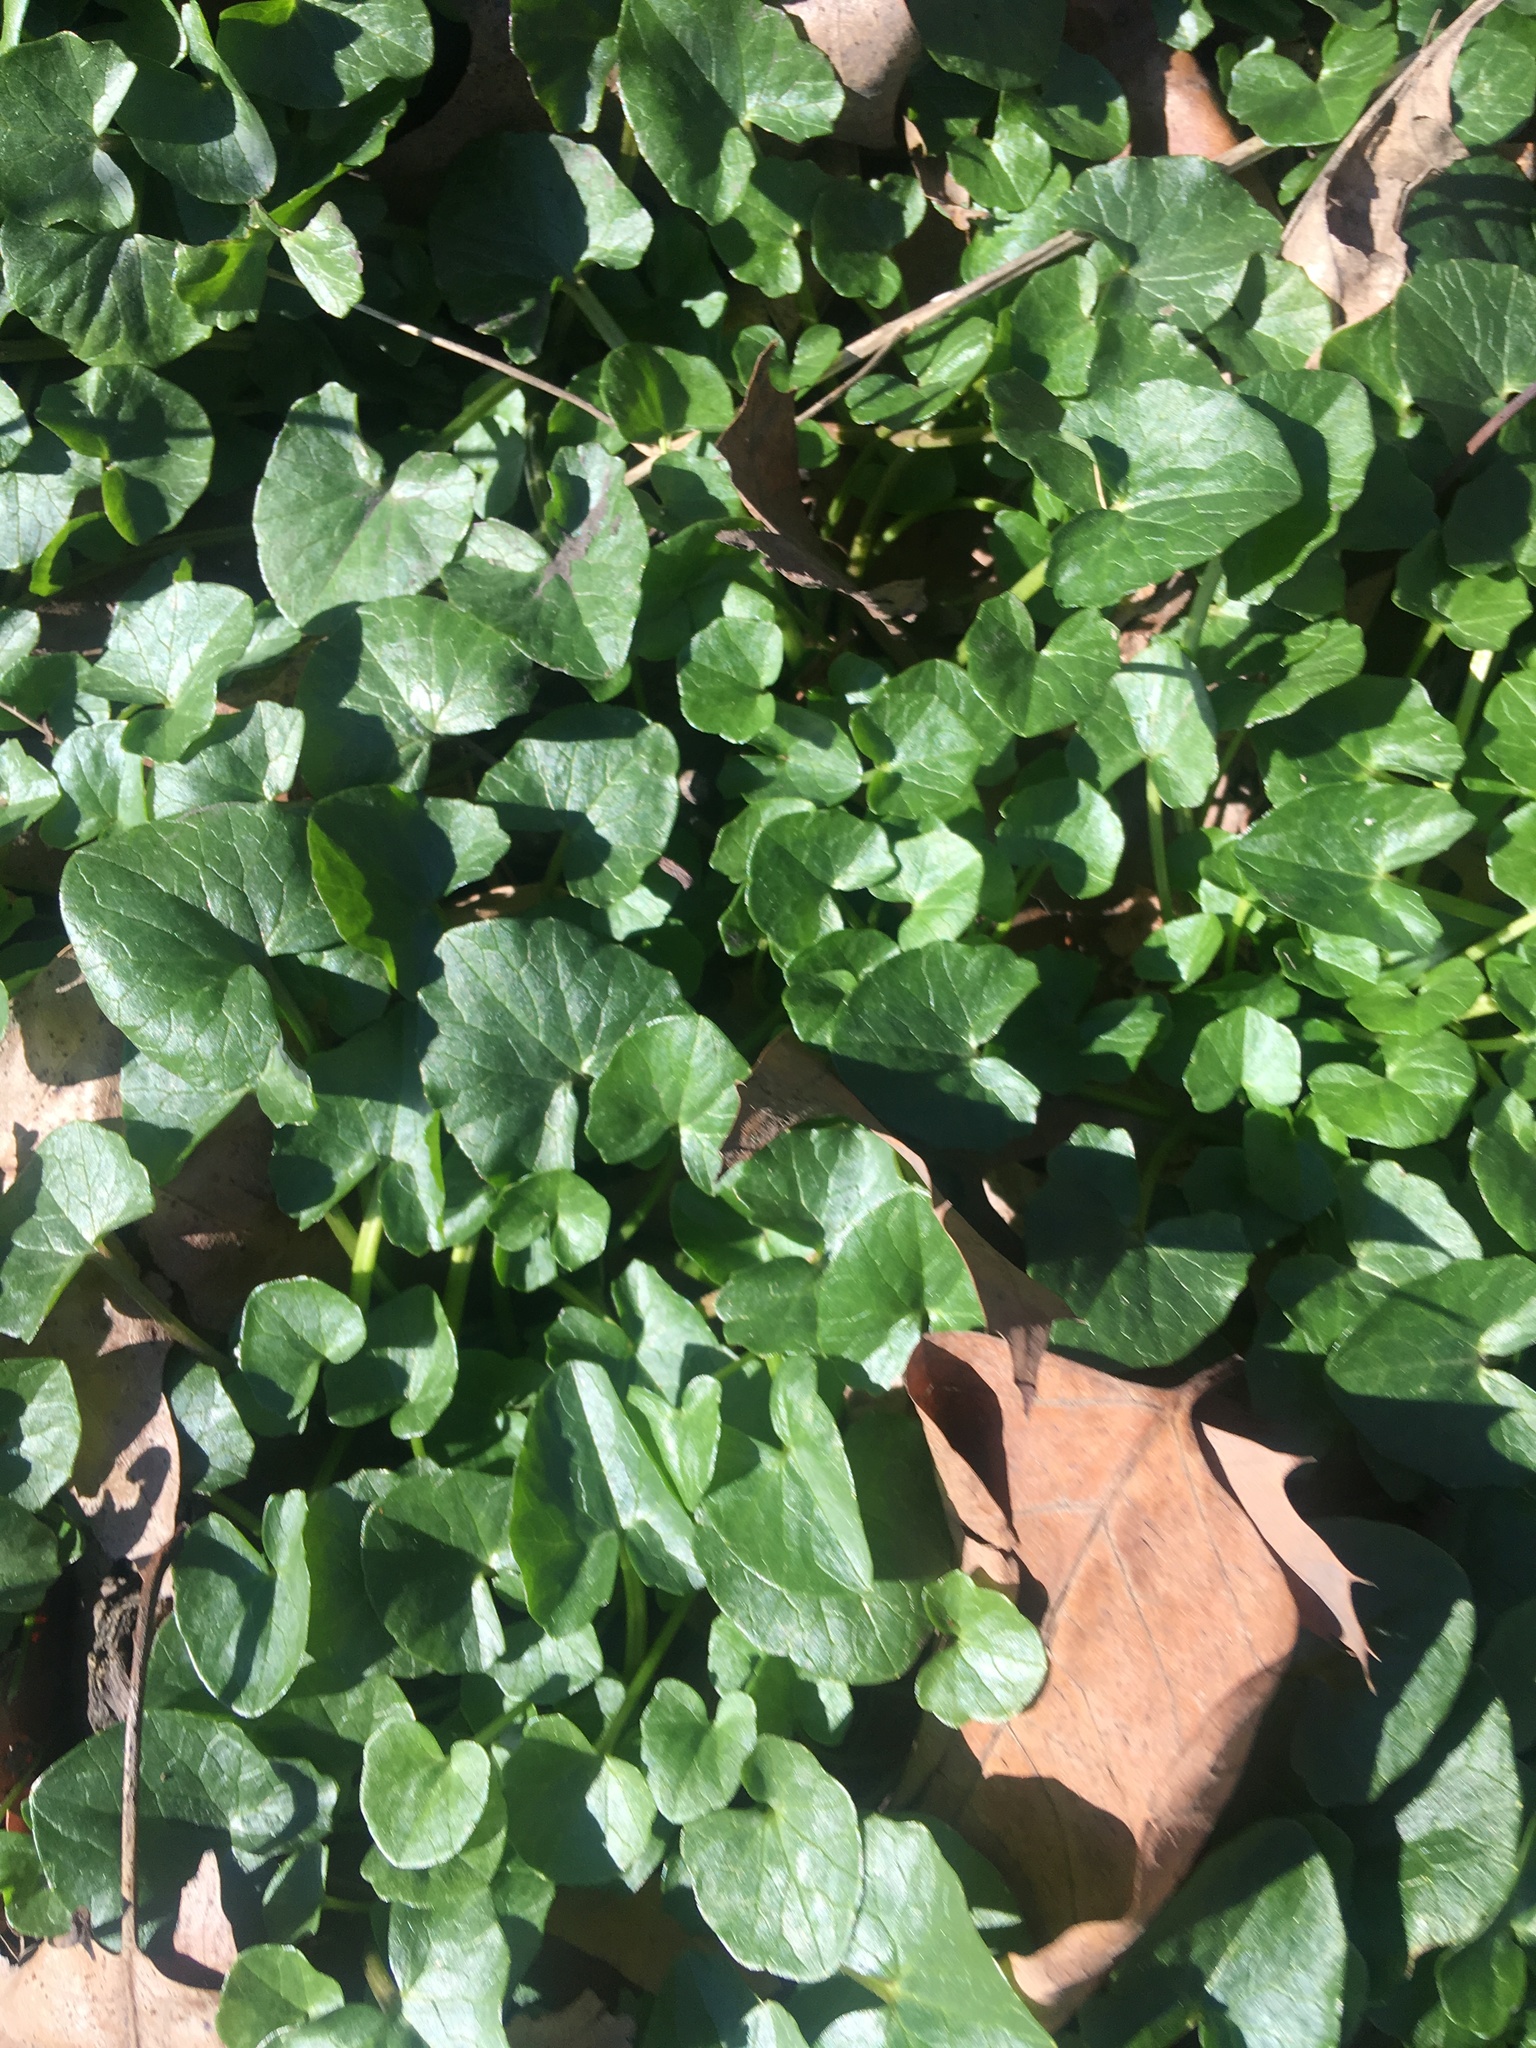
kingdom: Plantae
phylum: Tracheophyta
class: Magnoliopsida
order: Ranunculales
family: Ranunculaceae
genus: Ficaria
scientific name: Ficaria verna
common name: Lesser celandine
